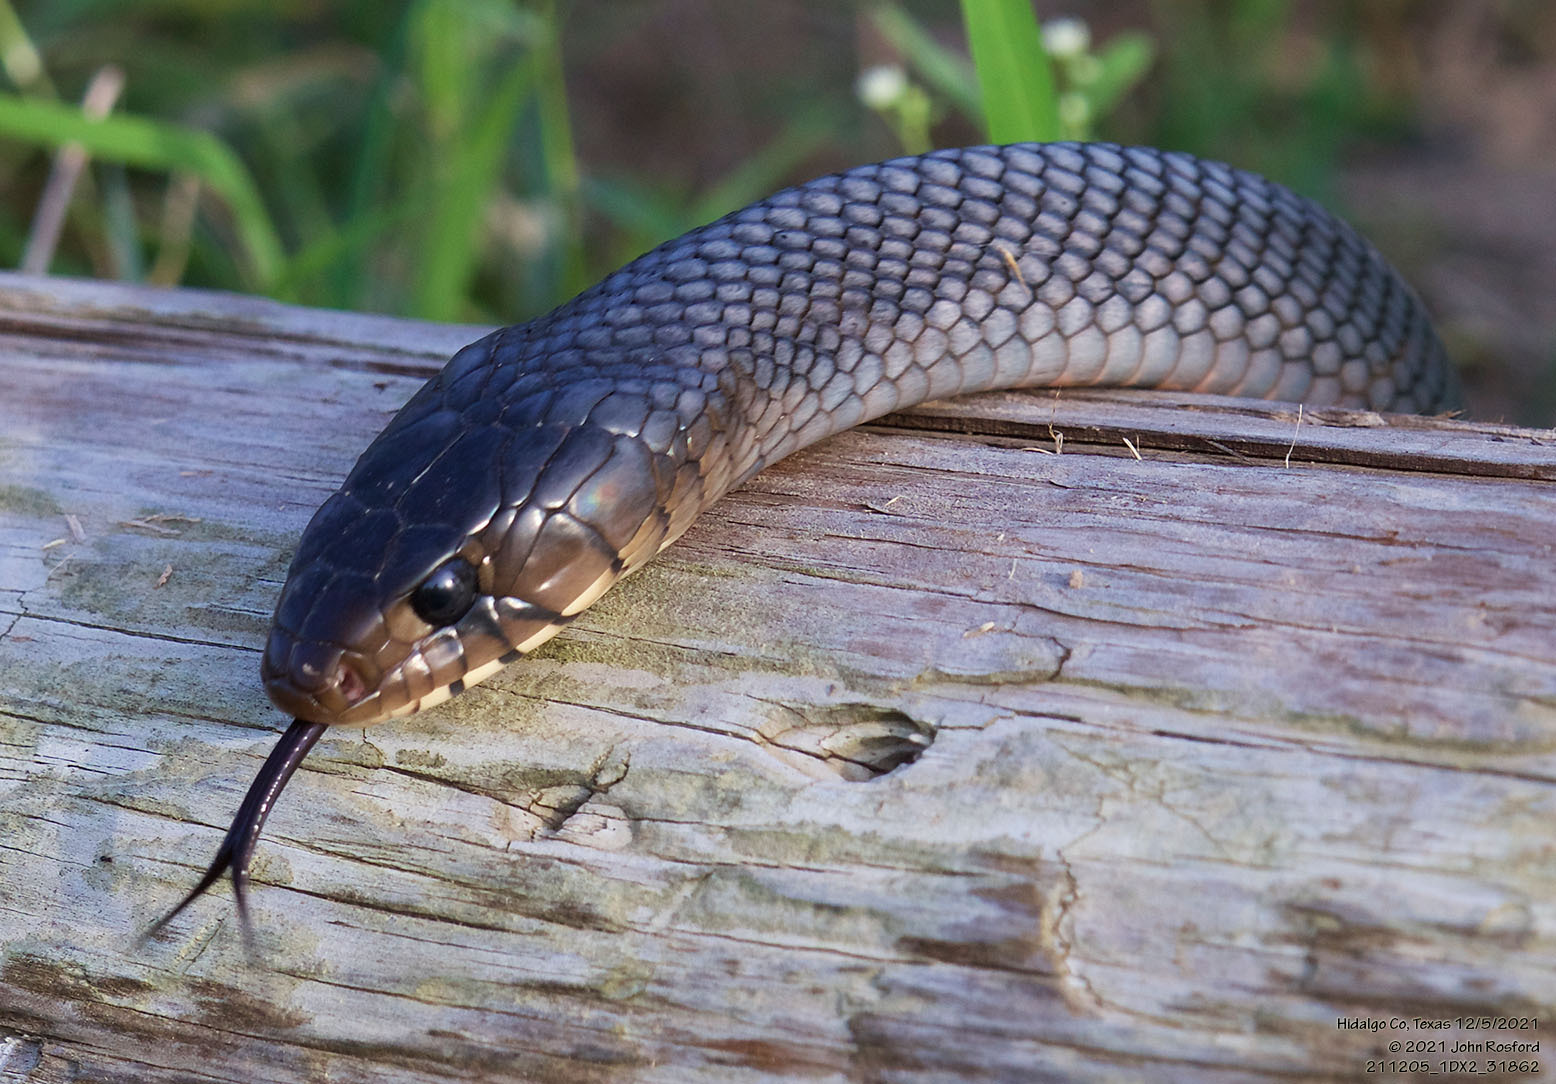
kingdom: Animalia
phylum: Chordata
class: Squamata
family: Colubridae
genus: Drymarchon
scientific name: Drymarchon melanurus
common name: Central american indigo snake
